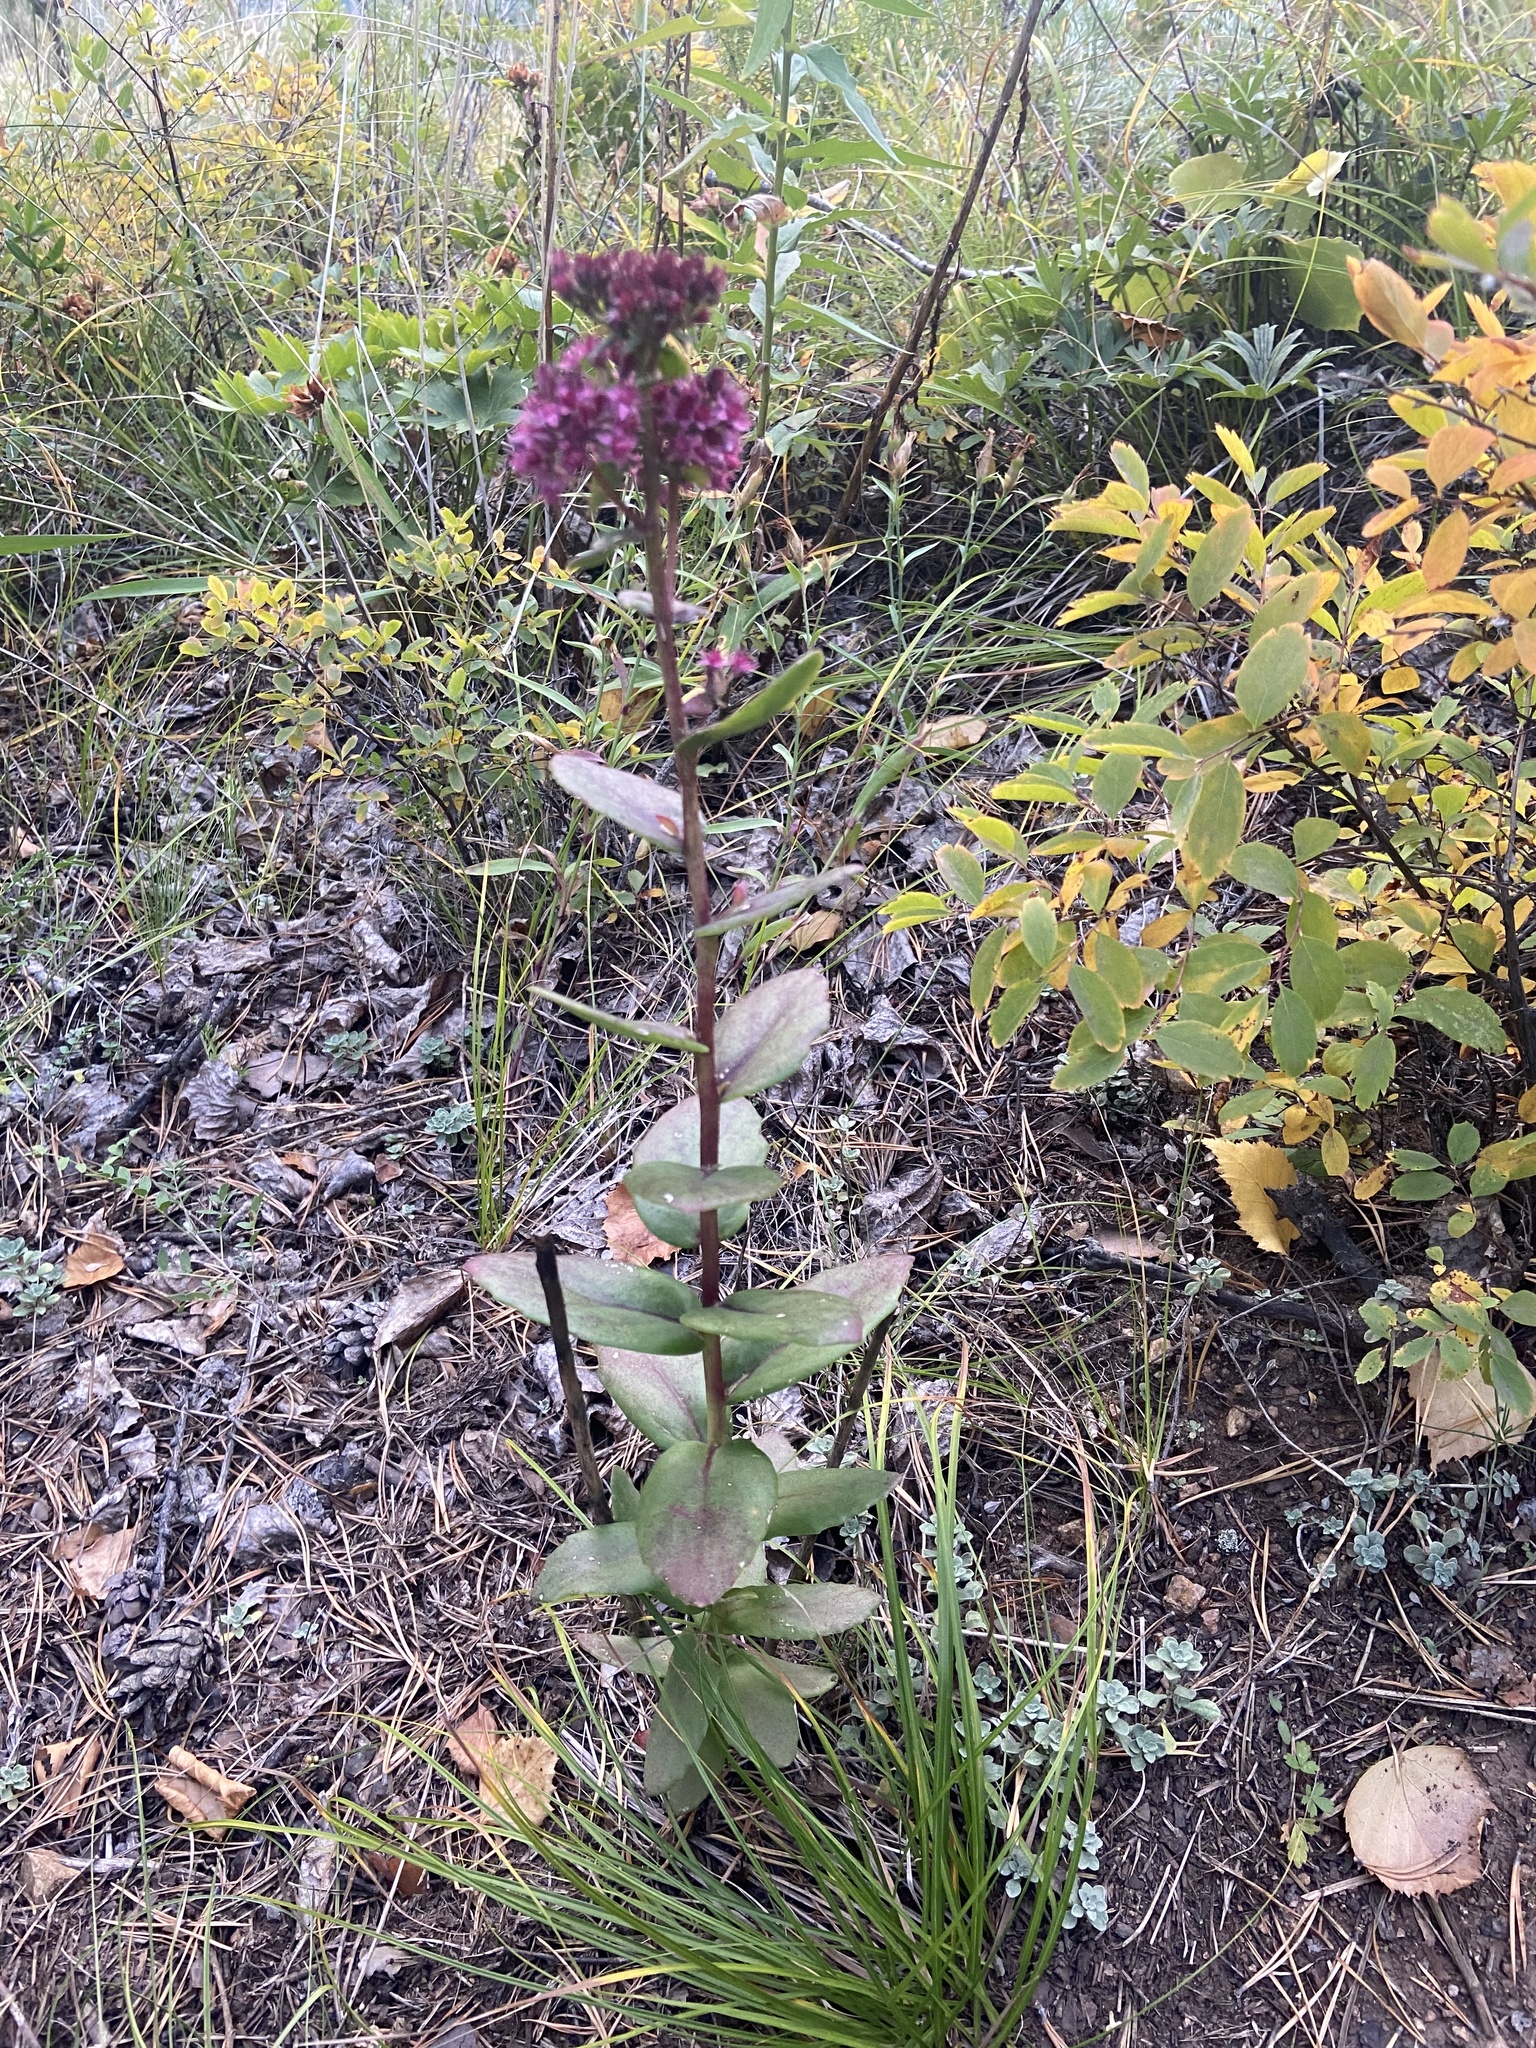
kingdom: Plantae
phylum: Tracheophyta
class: Magnoliopsida
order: Saxifragales
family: Crassulaceae
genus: Hylotelephium
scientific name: Hylotelephium telephium
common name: Live-forever
